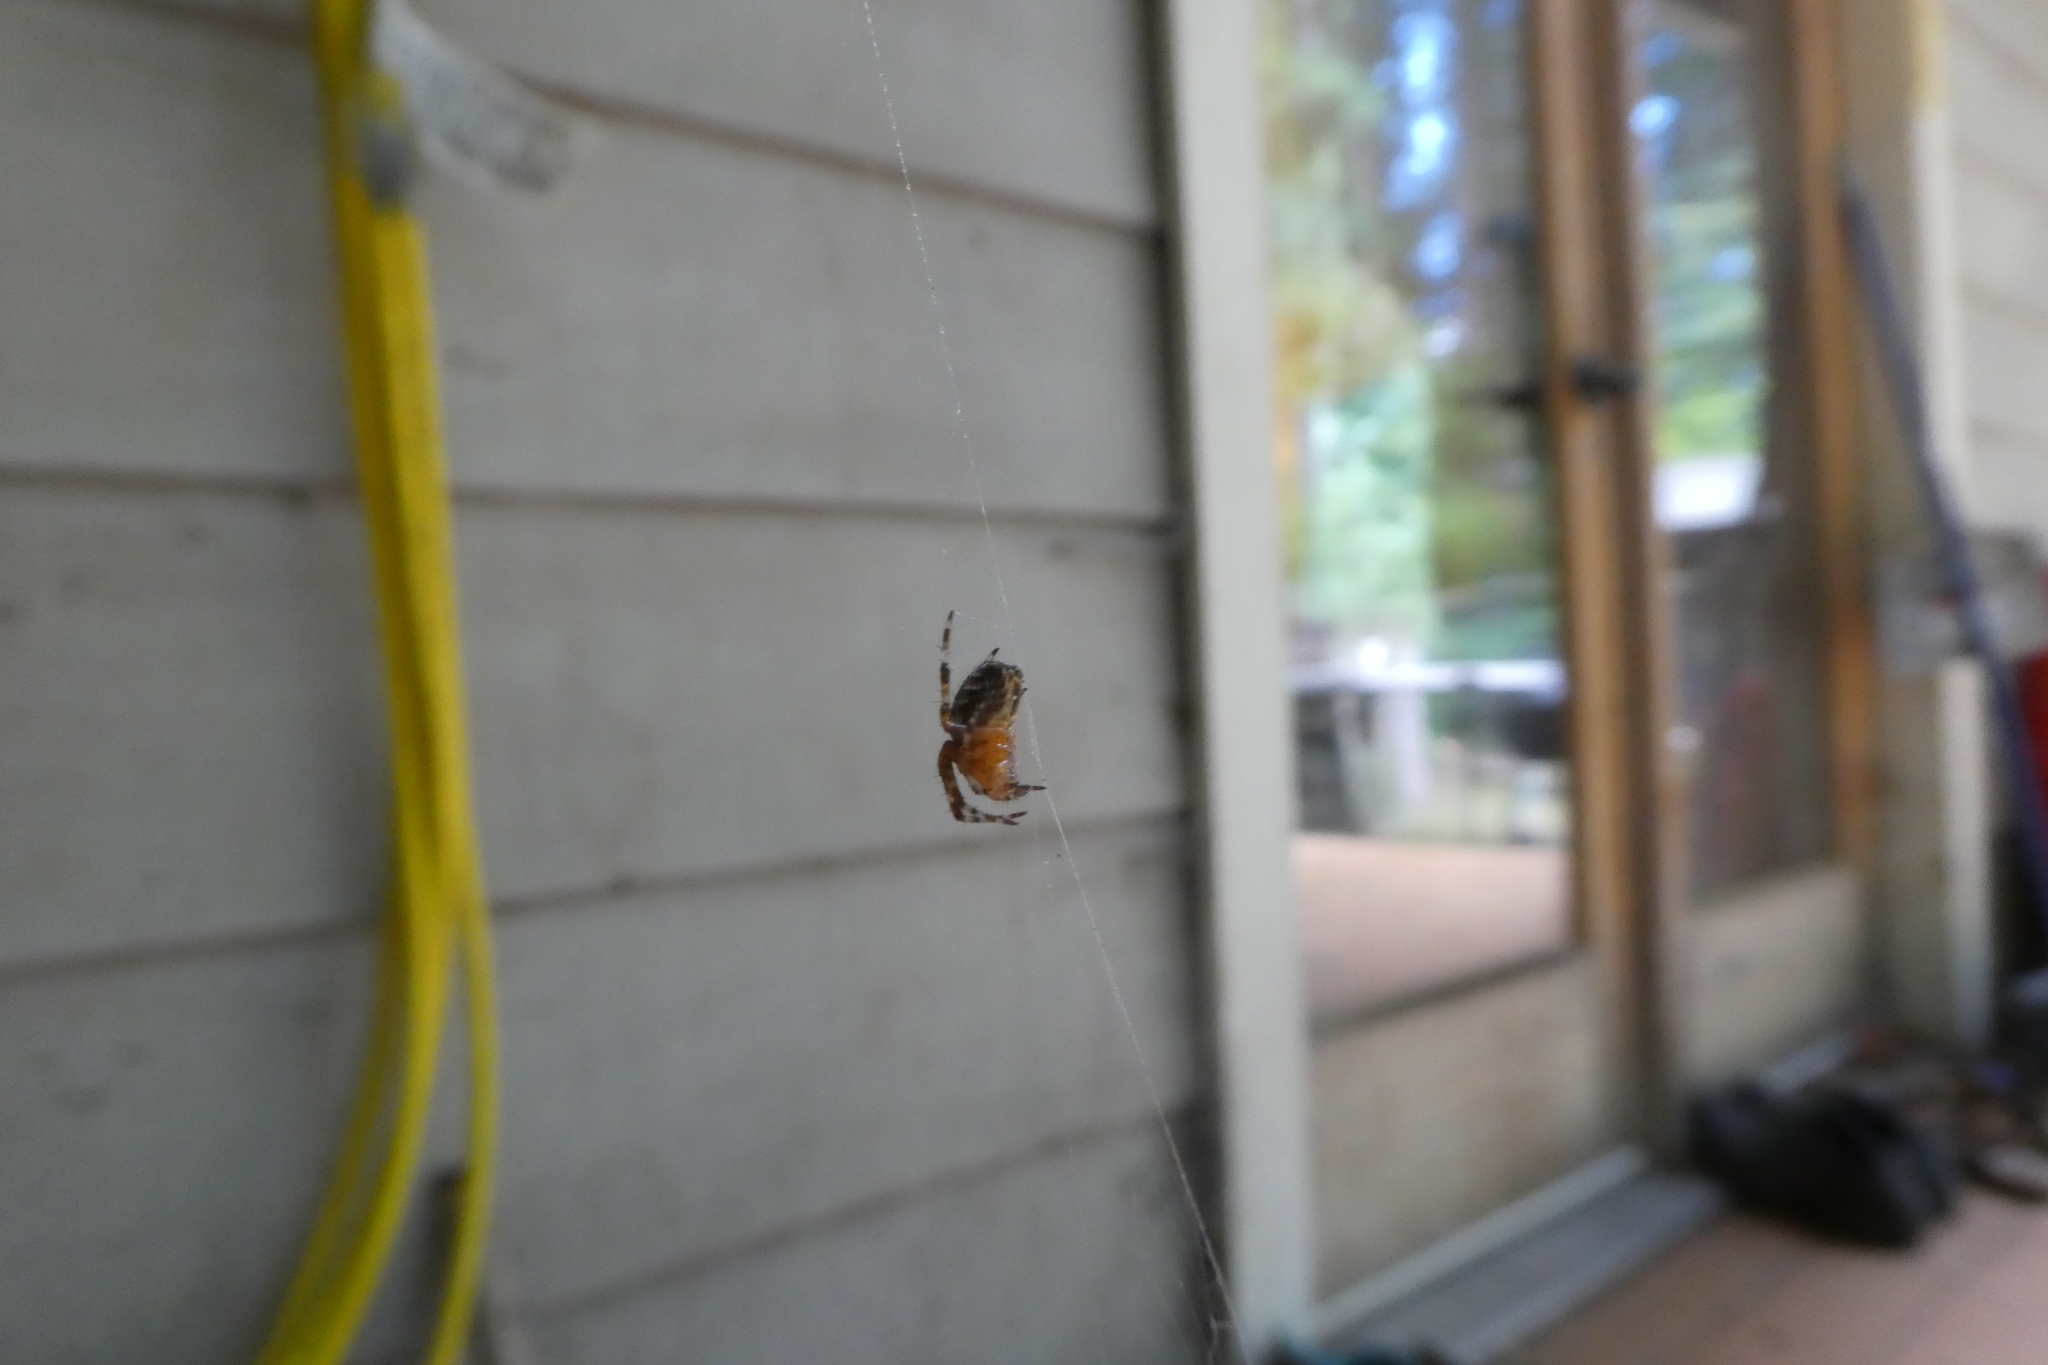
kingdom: Animalia
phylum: Arthropoda
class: Arachnida
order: Araneae
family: Araneidae
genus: Araneus
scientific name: Araneus diadematus
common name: Cross orbweaver
